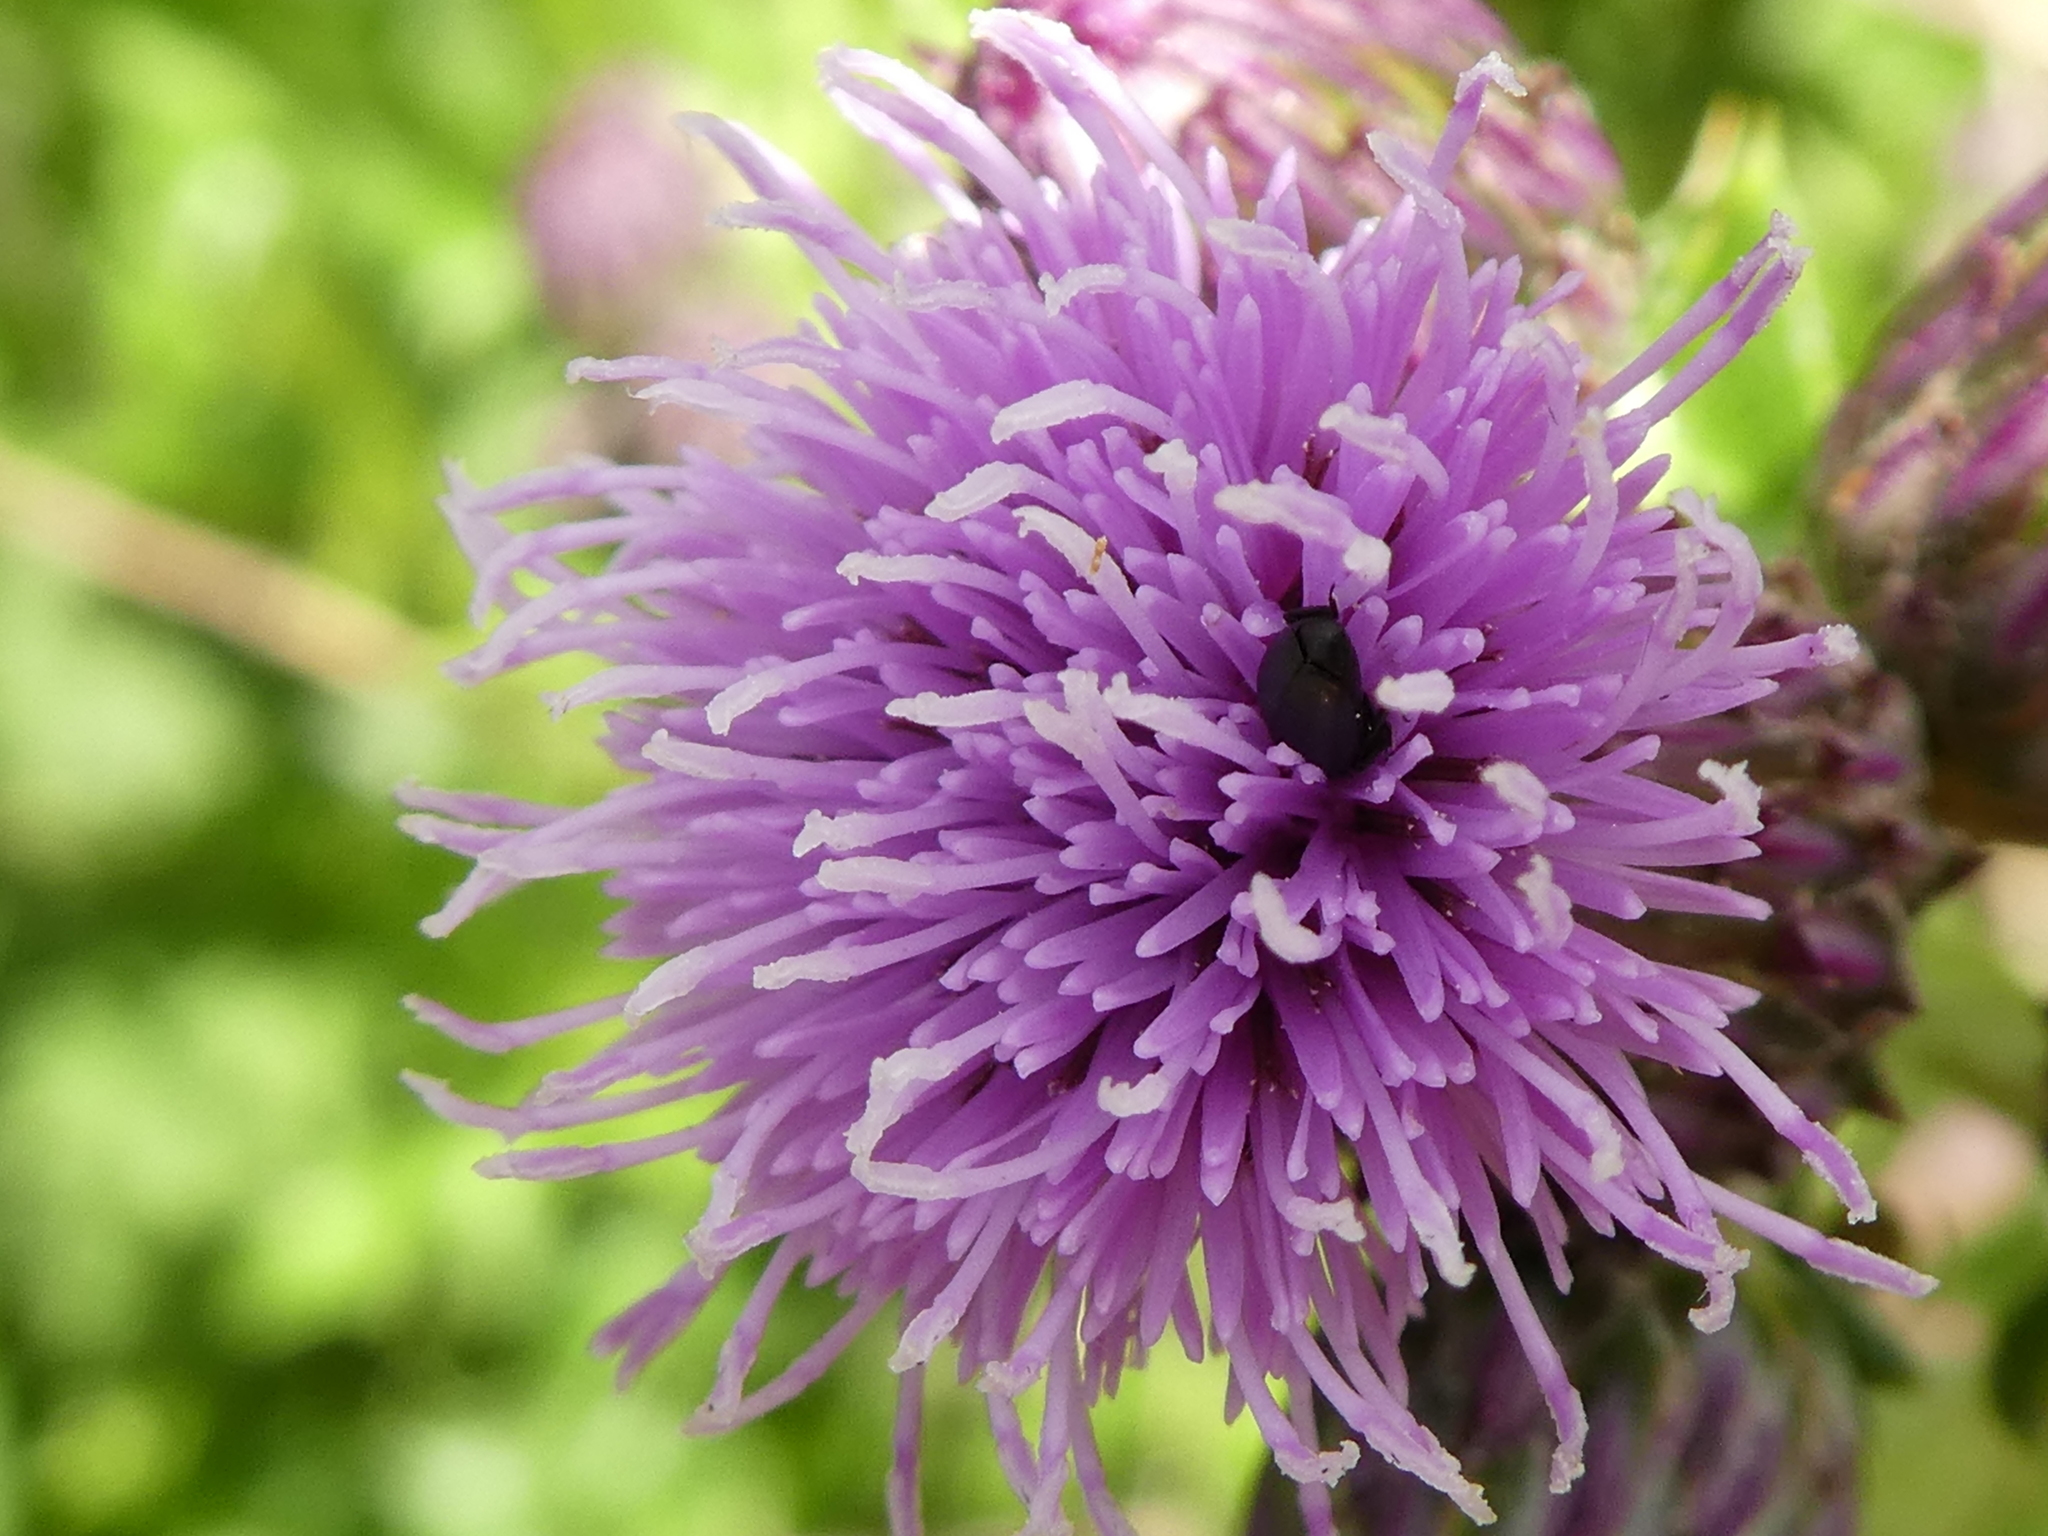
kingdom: Plantae
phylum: Tracheophyta
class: Magnoliopsida
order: Asterales
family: Asteraceae
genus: Cirsium
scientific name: Cirsium arvense
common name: Creeping thistle
